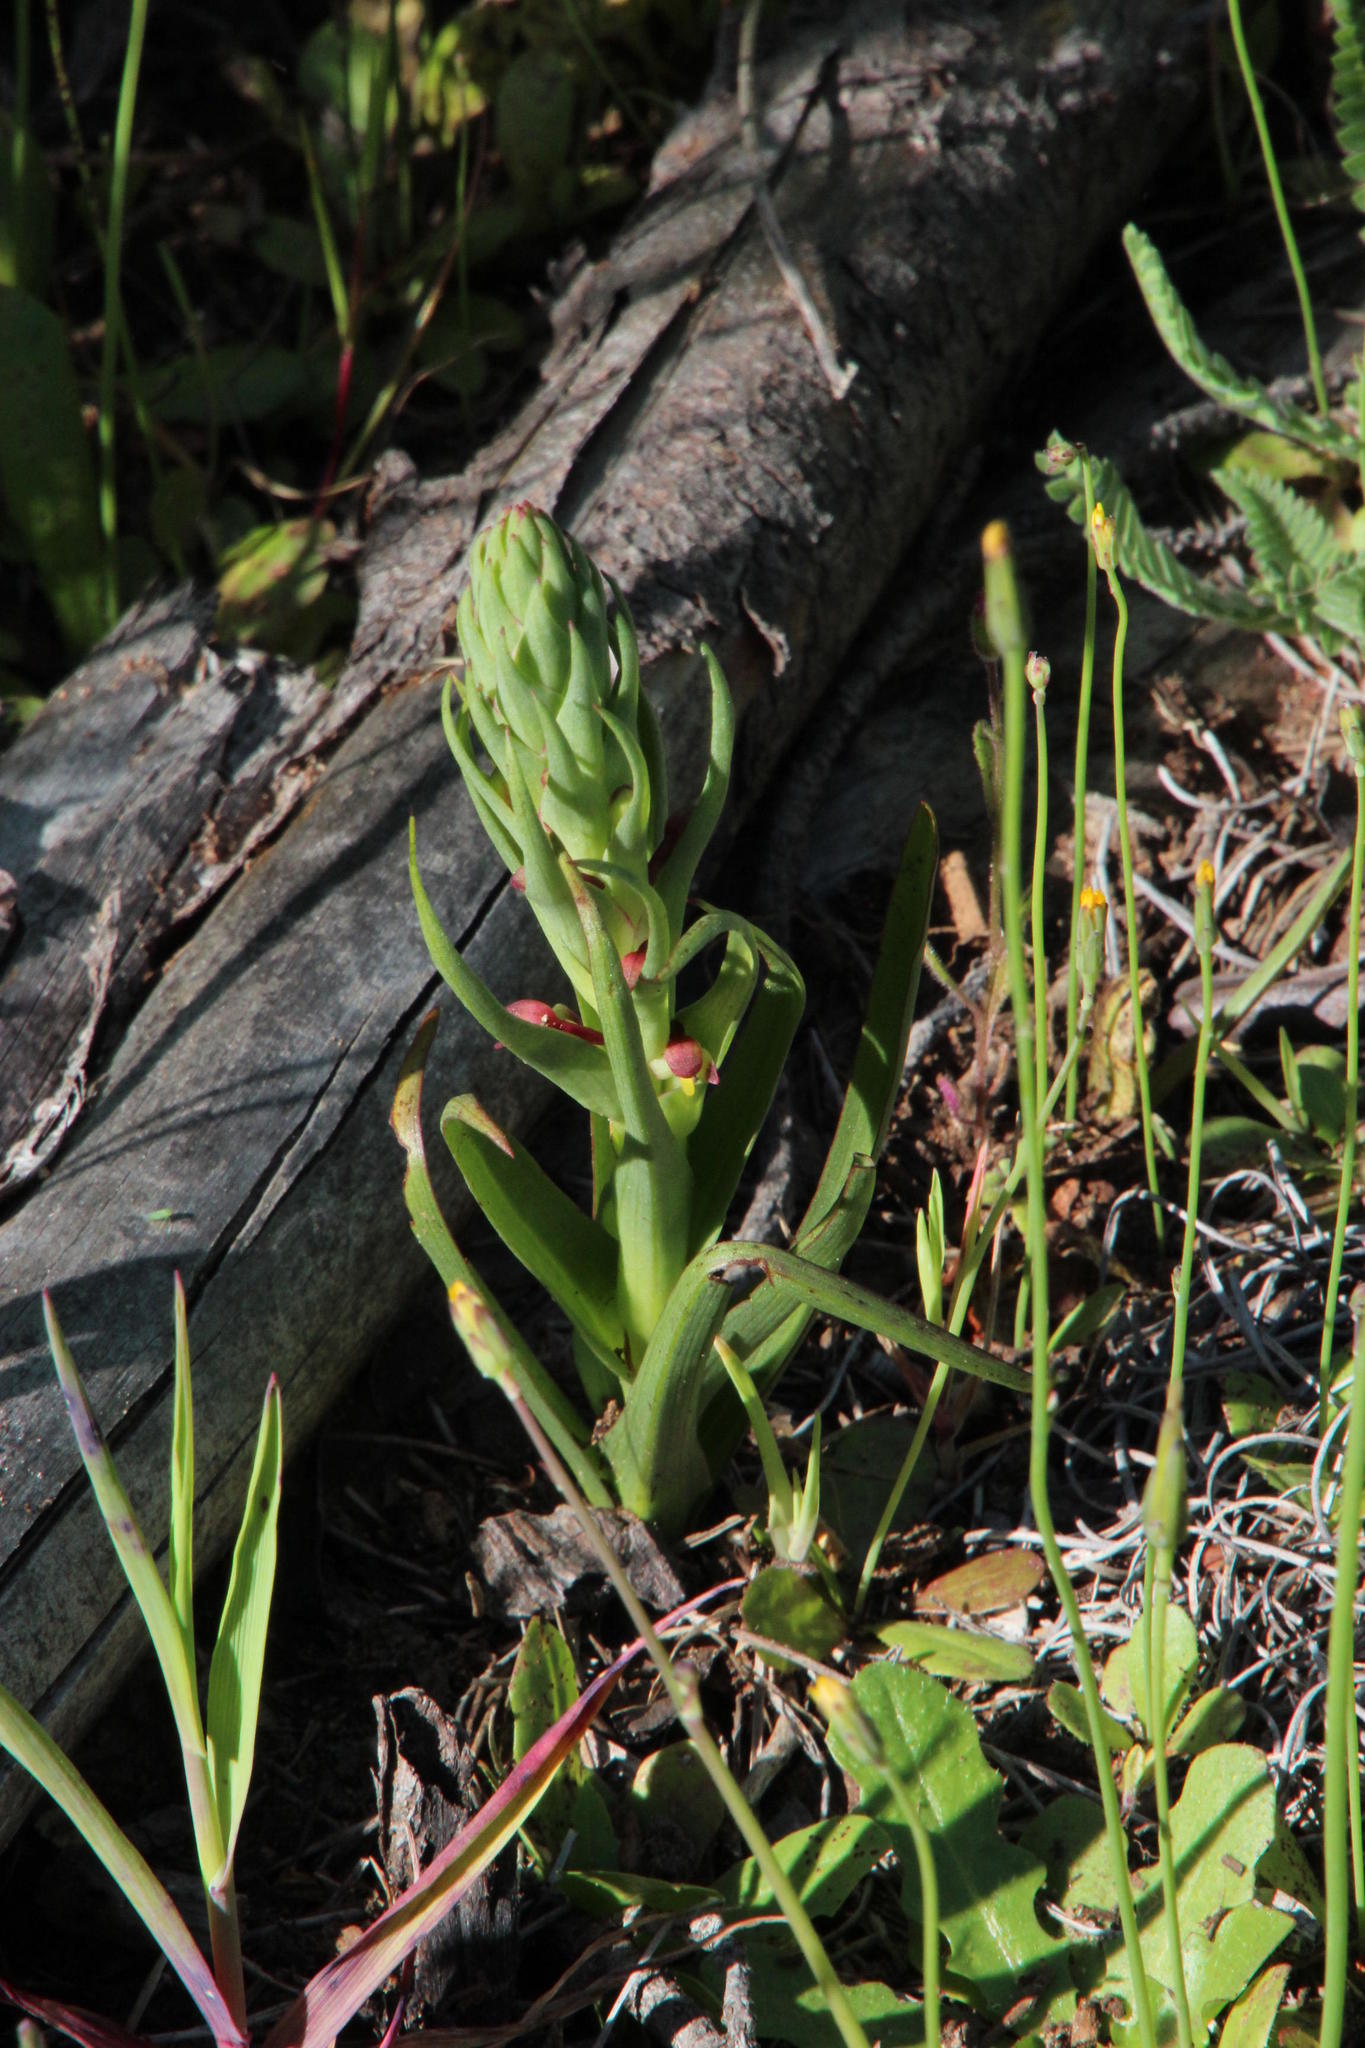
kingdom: Plantae
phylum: Tracheophyta
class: Liliopsida
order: Asparagales
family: Orchidaceae
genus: Disa
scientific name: Disa bracteata
